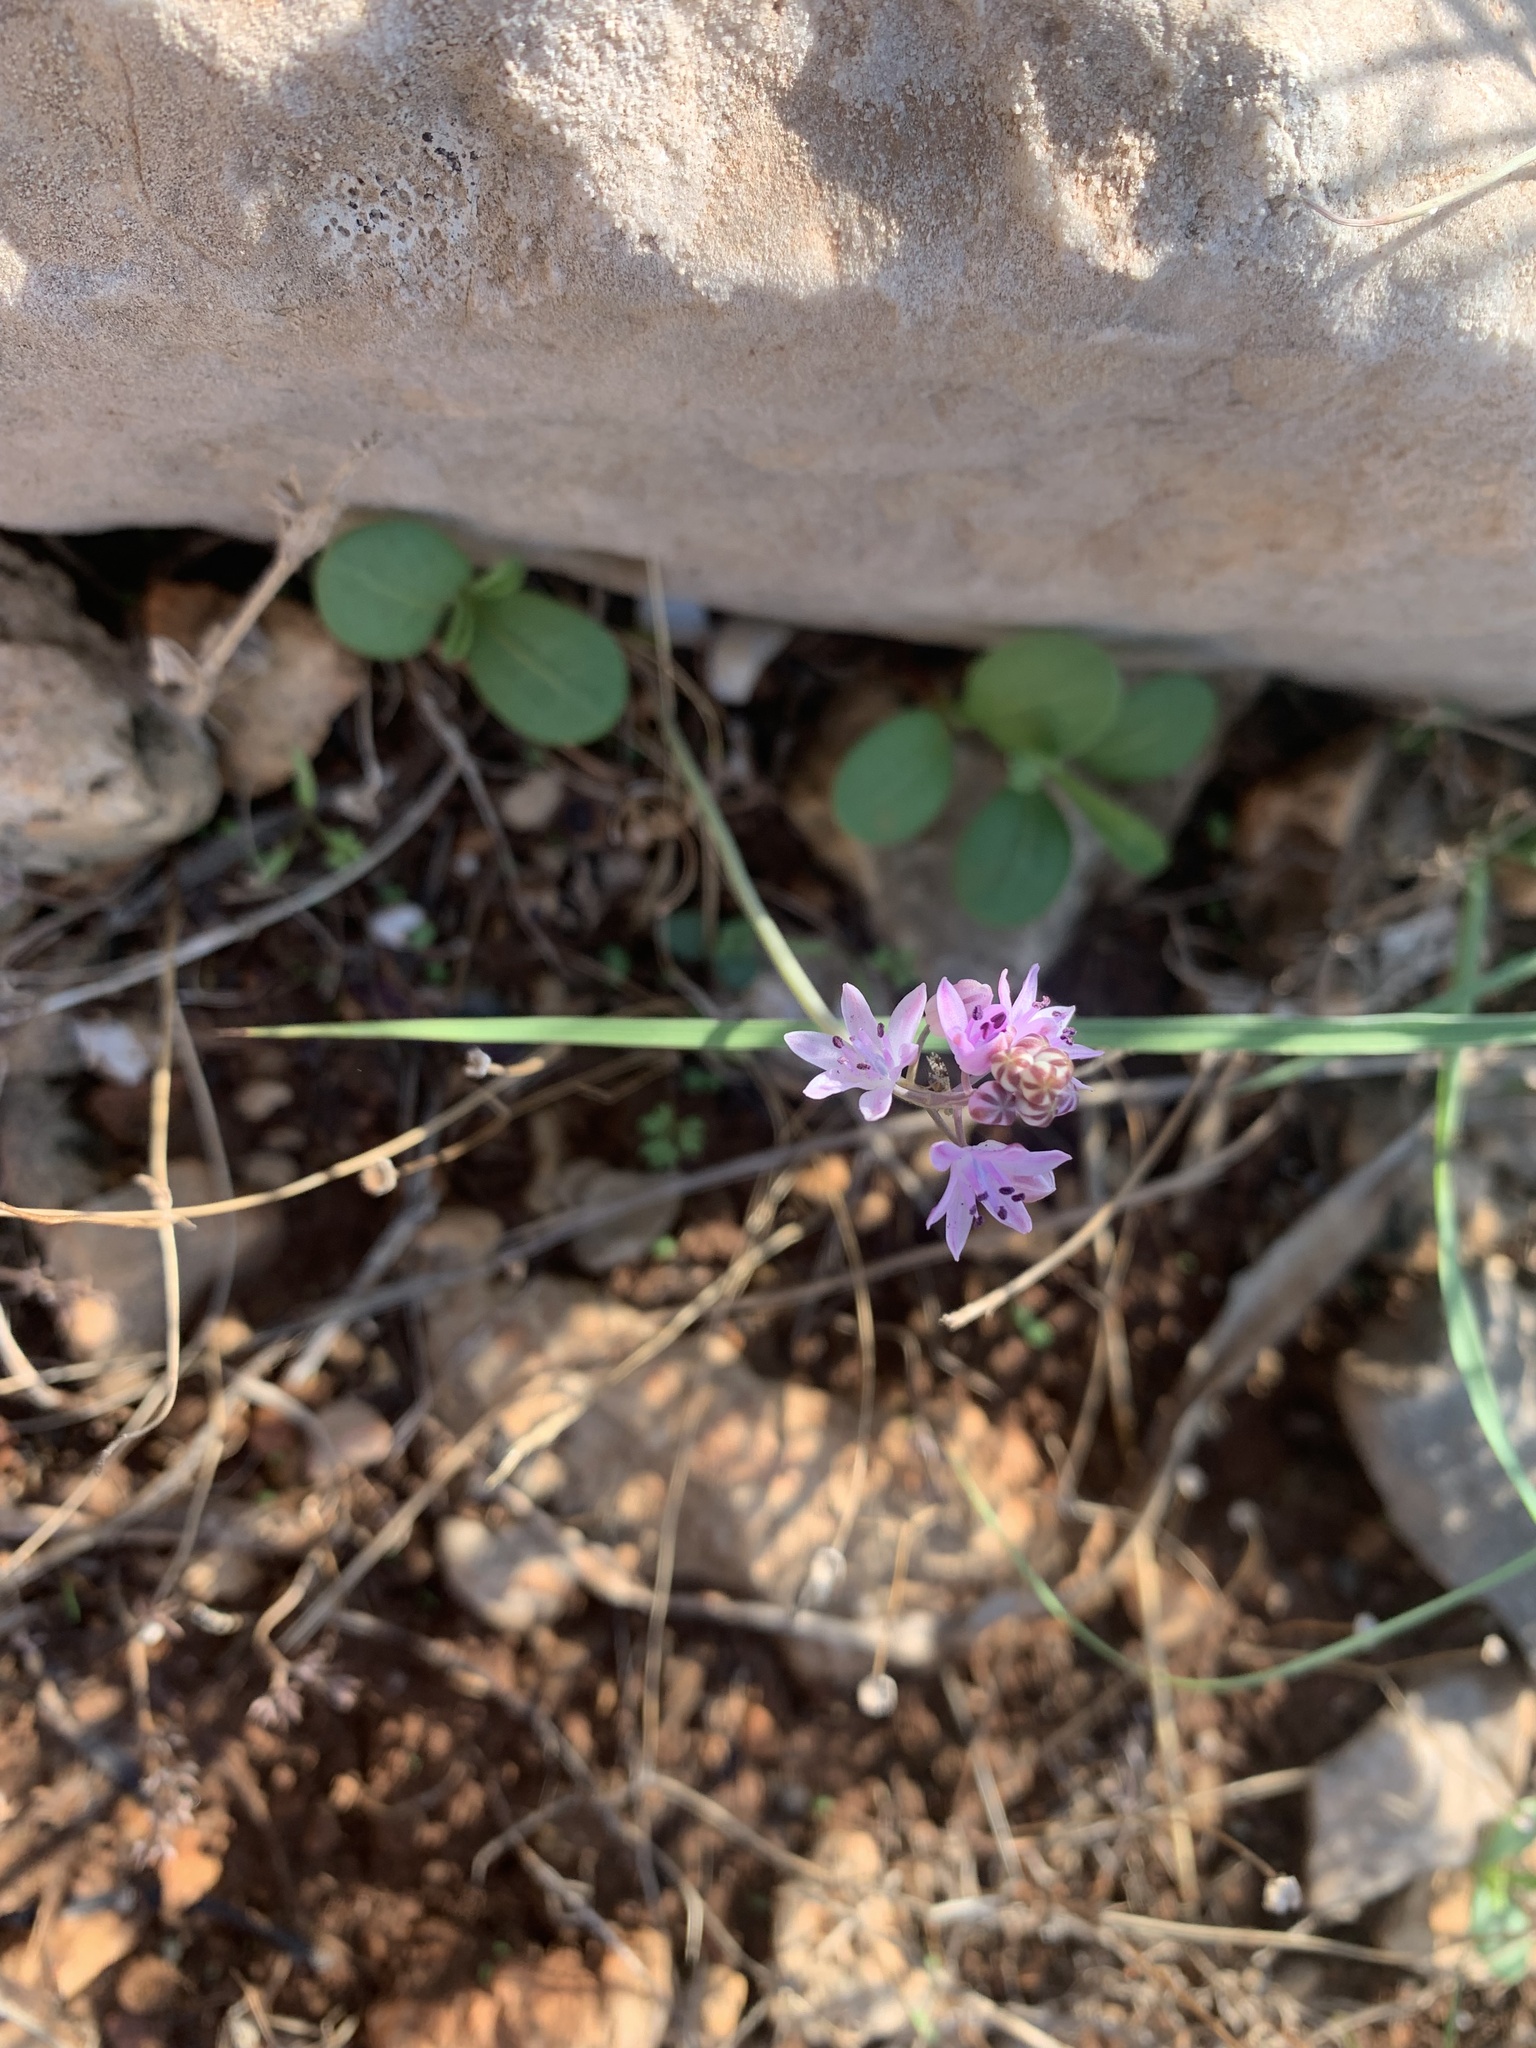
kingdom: Plantae
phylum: Tracheophyta
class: Liliopsida
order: Asparagales
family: Asparagaceae
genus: Prospero
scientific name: Prospero autumnale
